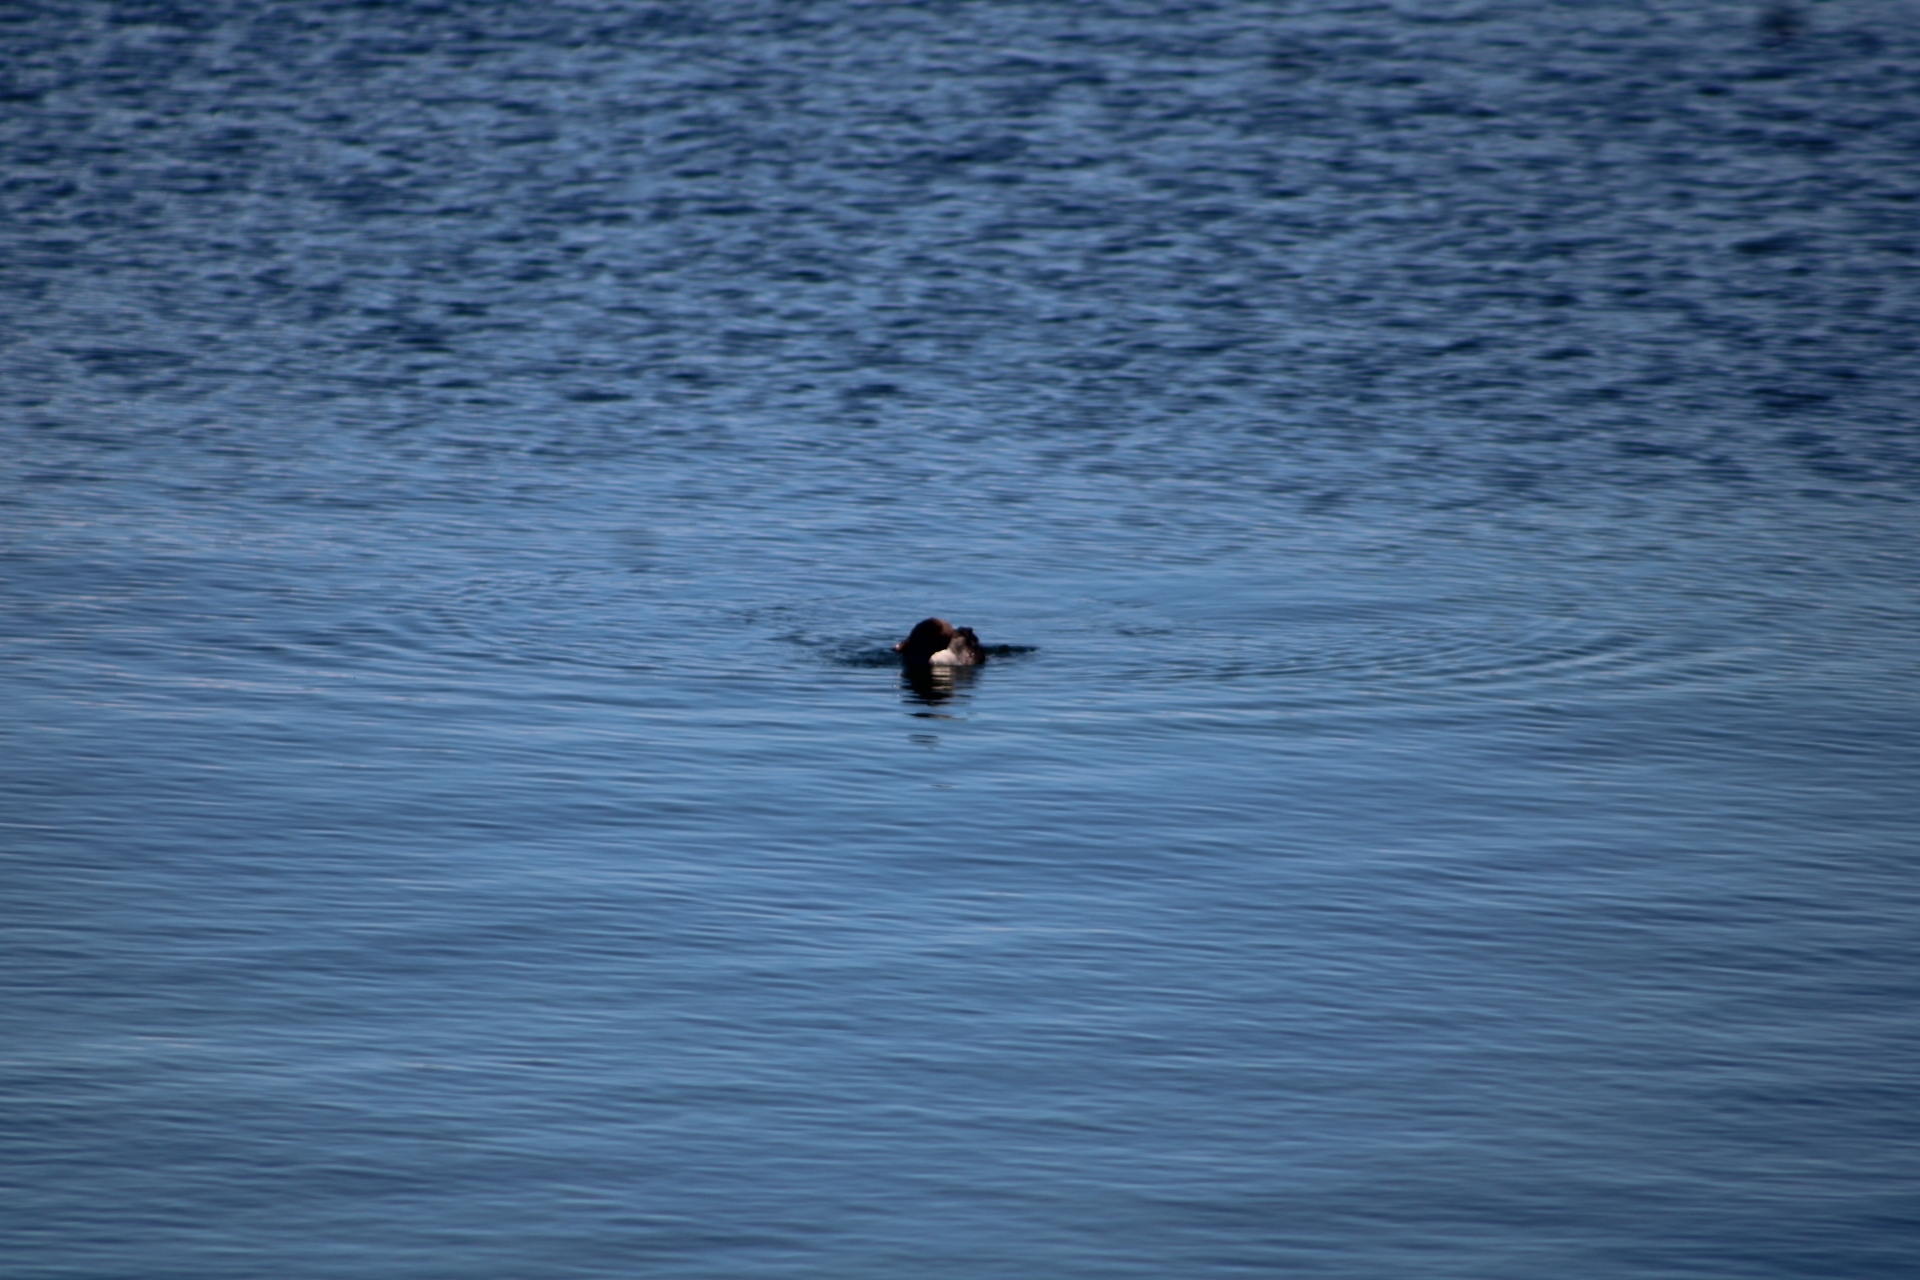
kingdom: Animalia
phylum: Chordata
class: Aves
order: Anseriformes
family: Anatidae
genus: Bucephala
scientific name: Bucephala islandica
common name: Barrow's goldeneye
